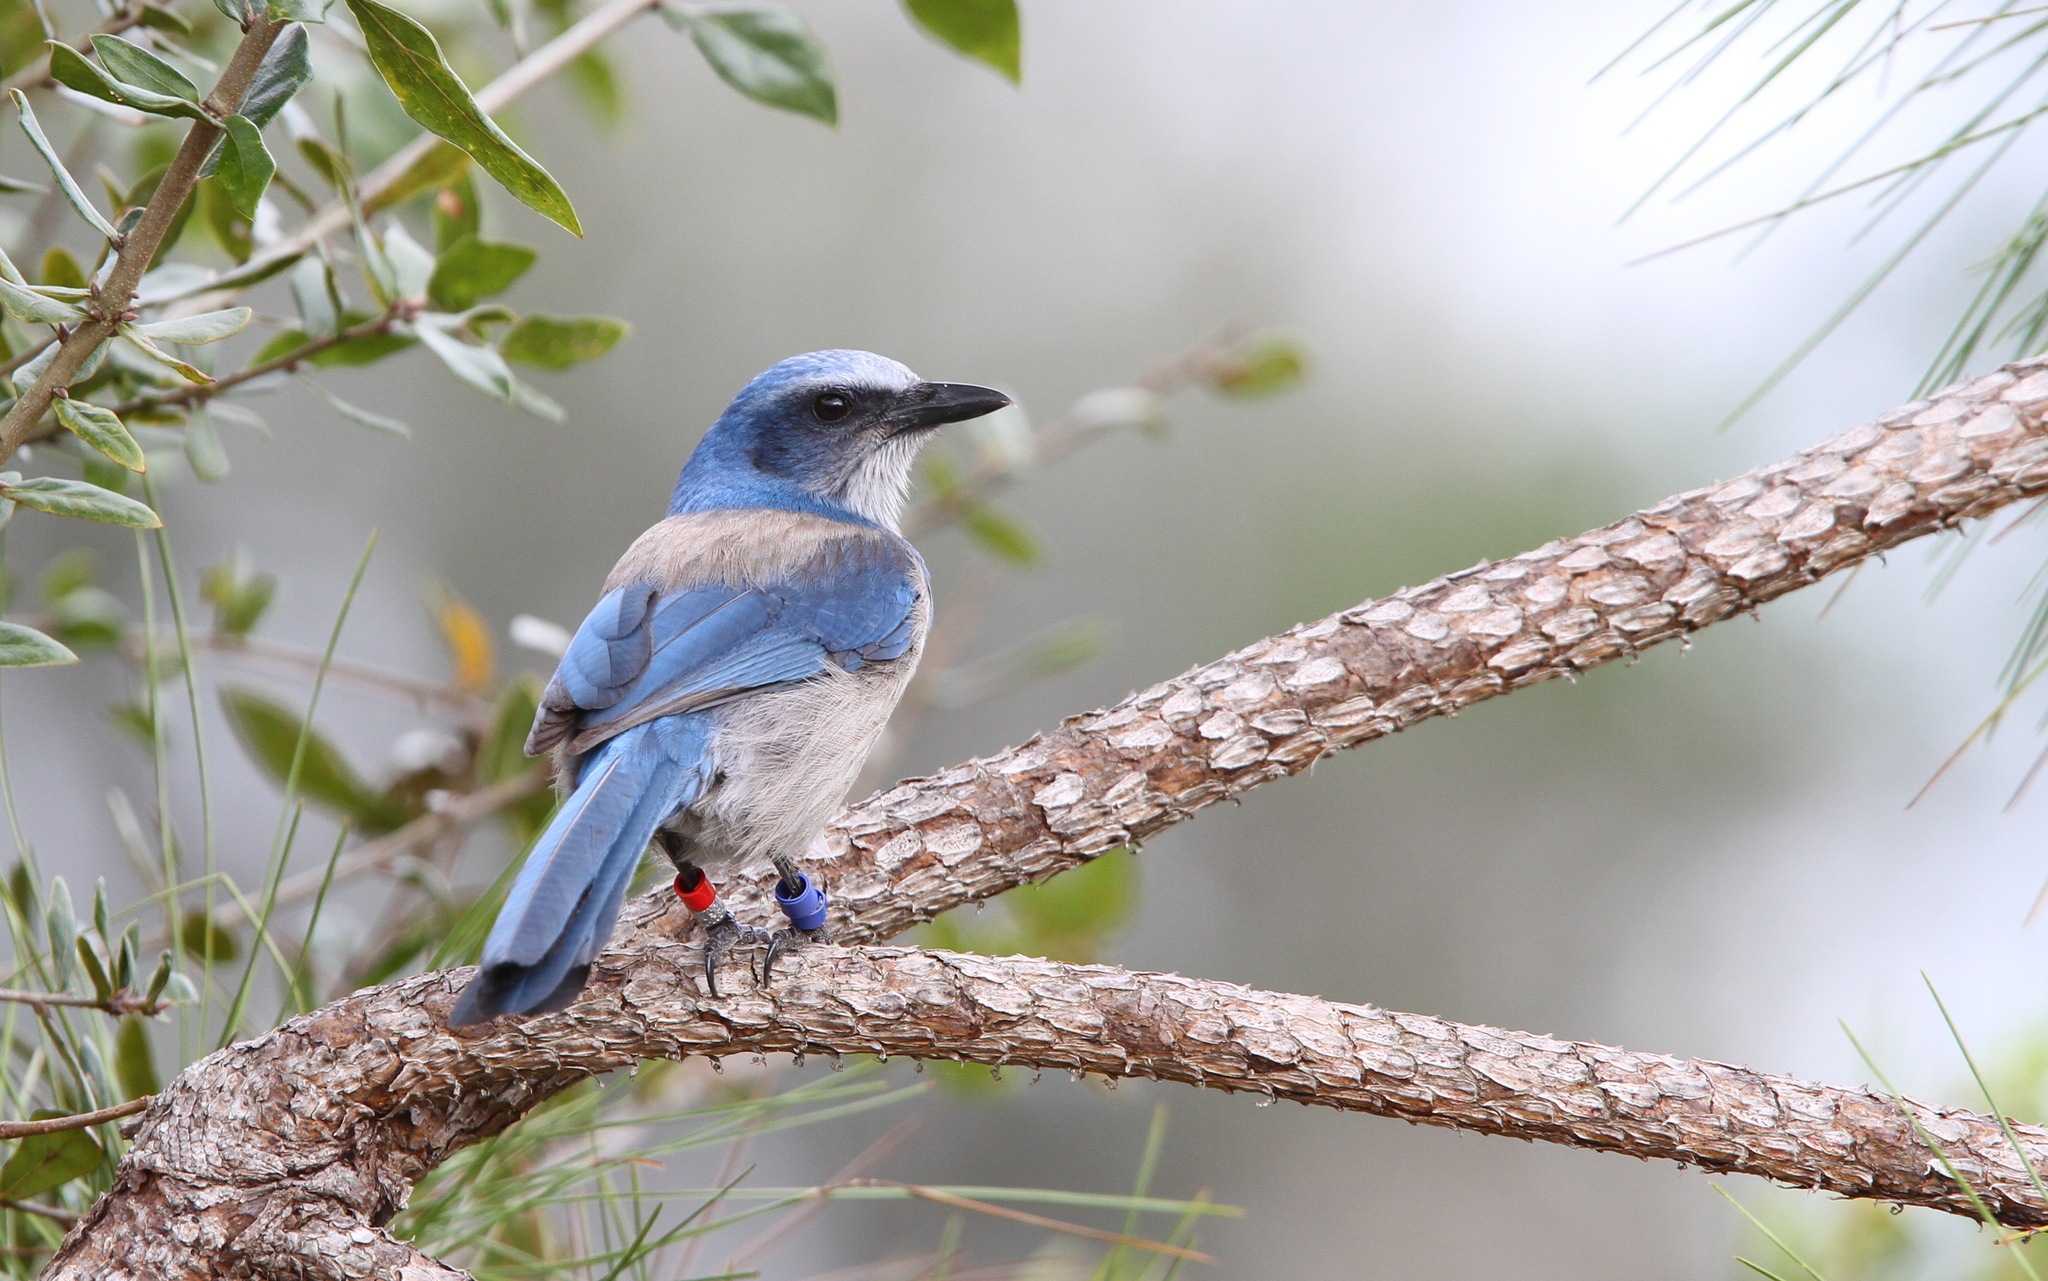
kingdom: Animalia
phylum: Chordata
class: Aves
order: Passeriformes
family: Corvidae
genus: Aphelocoma
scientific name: Aphelocoma coerulescens
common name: Florida scrub jay
